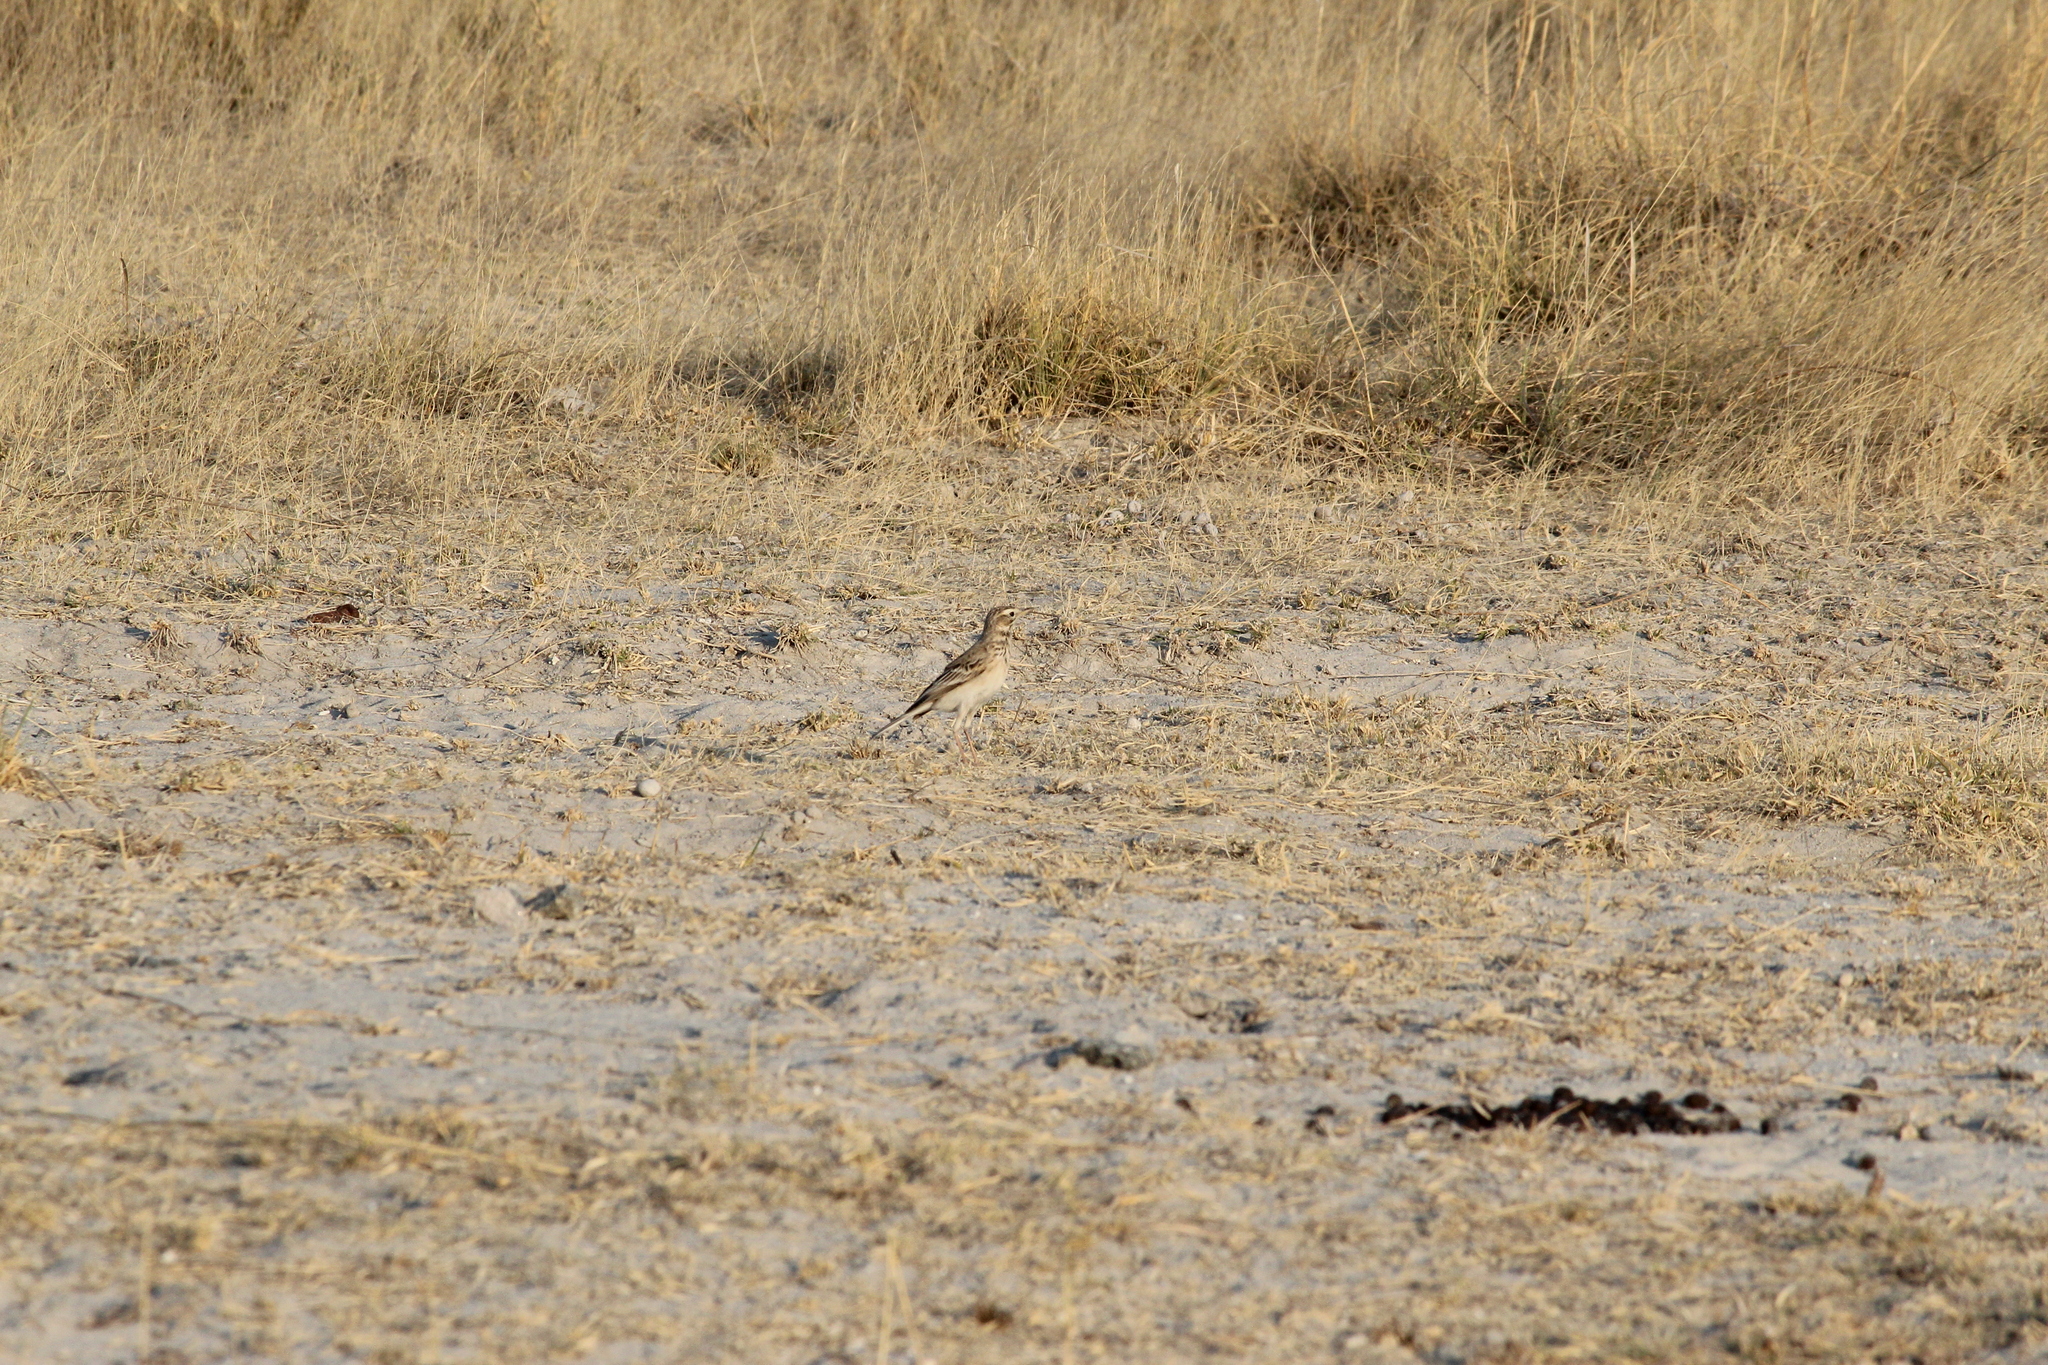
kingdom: Animalia
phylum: Chordata
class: Aves
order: Passeriformes
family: Motacillidae
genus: Anthus
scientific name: Anthus cinnamomeus
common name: African pipit
